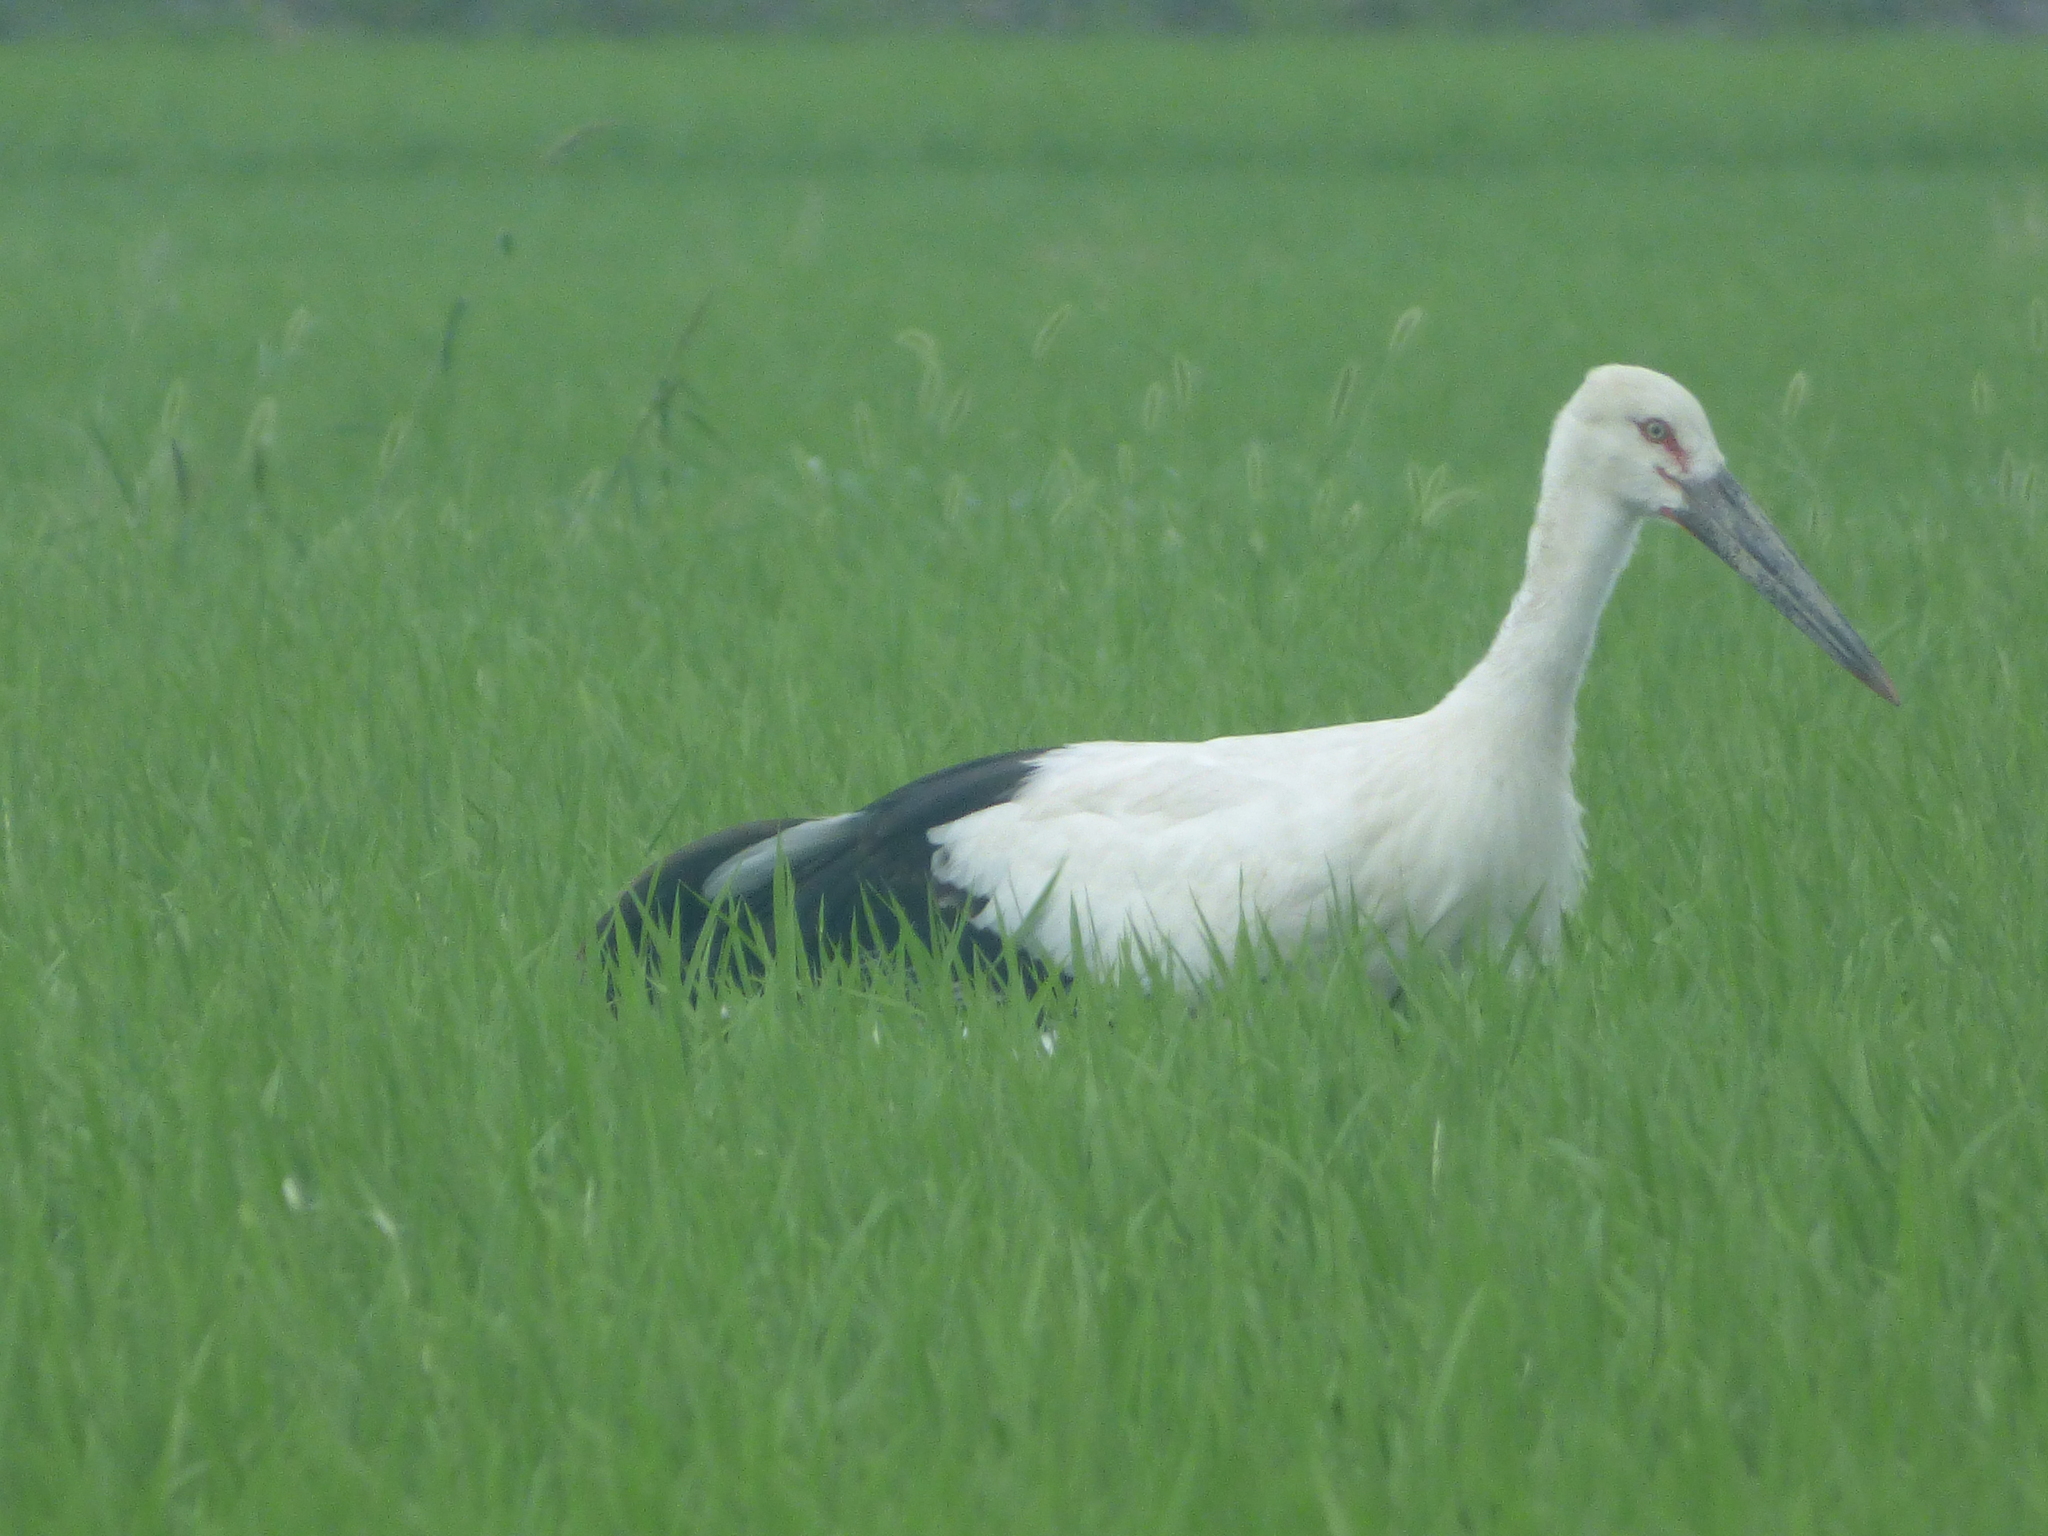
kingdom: Animalia
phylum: Chordata
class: Aves
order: Ciconiiformes
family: Ciconiidae
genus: Ciconia
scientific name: Ciconia boyciana
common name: Oriental stork
